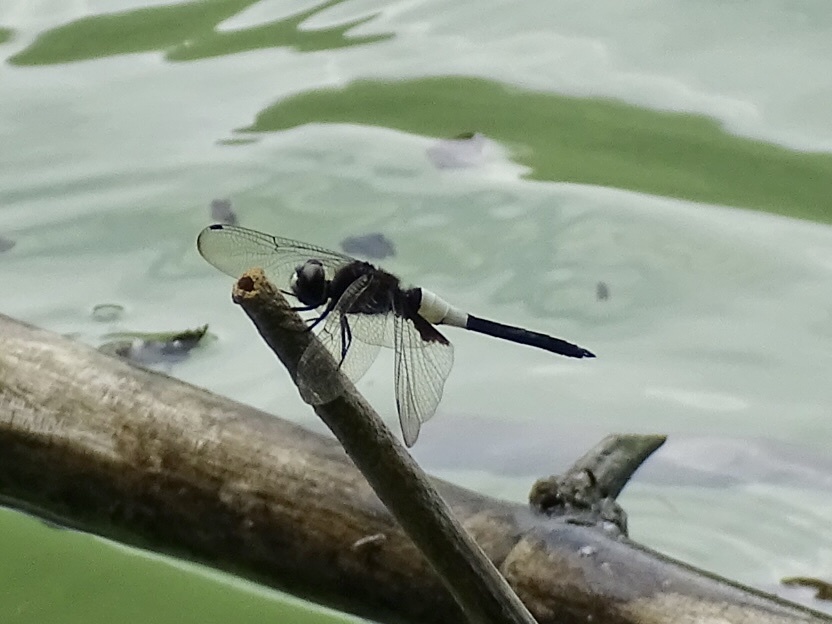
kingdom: Animalia
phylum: Arthropoda
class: Insecta
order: Odonata
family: Libellulidae
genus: Pseudothemis
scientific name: Pseudothemis zonata
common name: Pied skimmer
